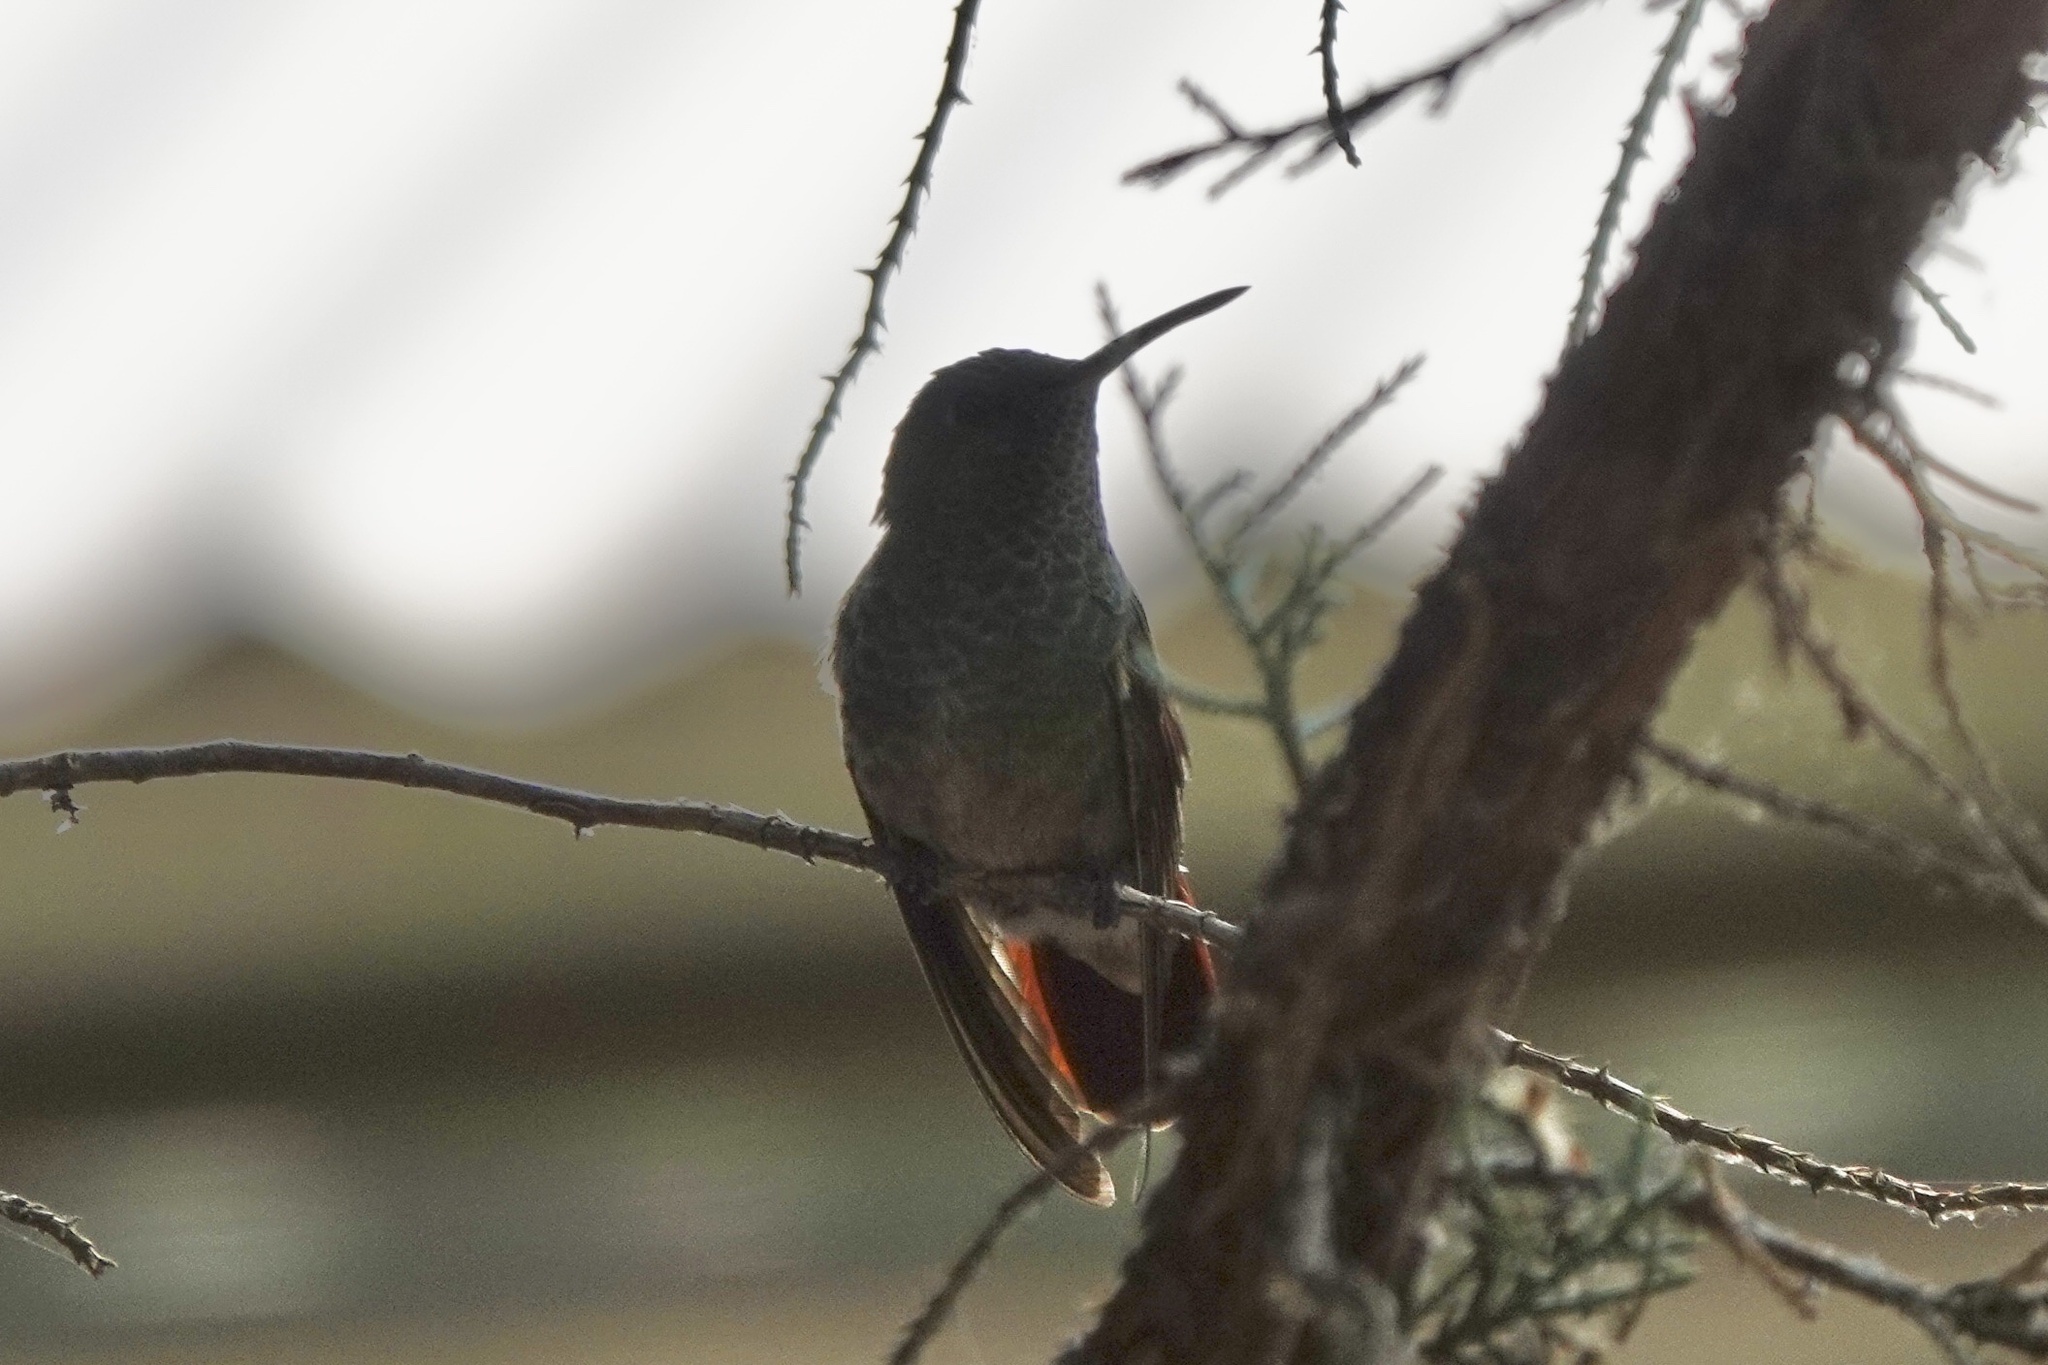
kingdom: Animalia
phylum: Chordata
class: Aves
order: Apodiformes
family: Trochilidae
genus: Saucerottia
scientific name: Saucerottia beryllina
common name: Berylline hummingbird
